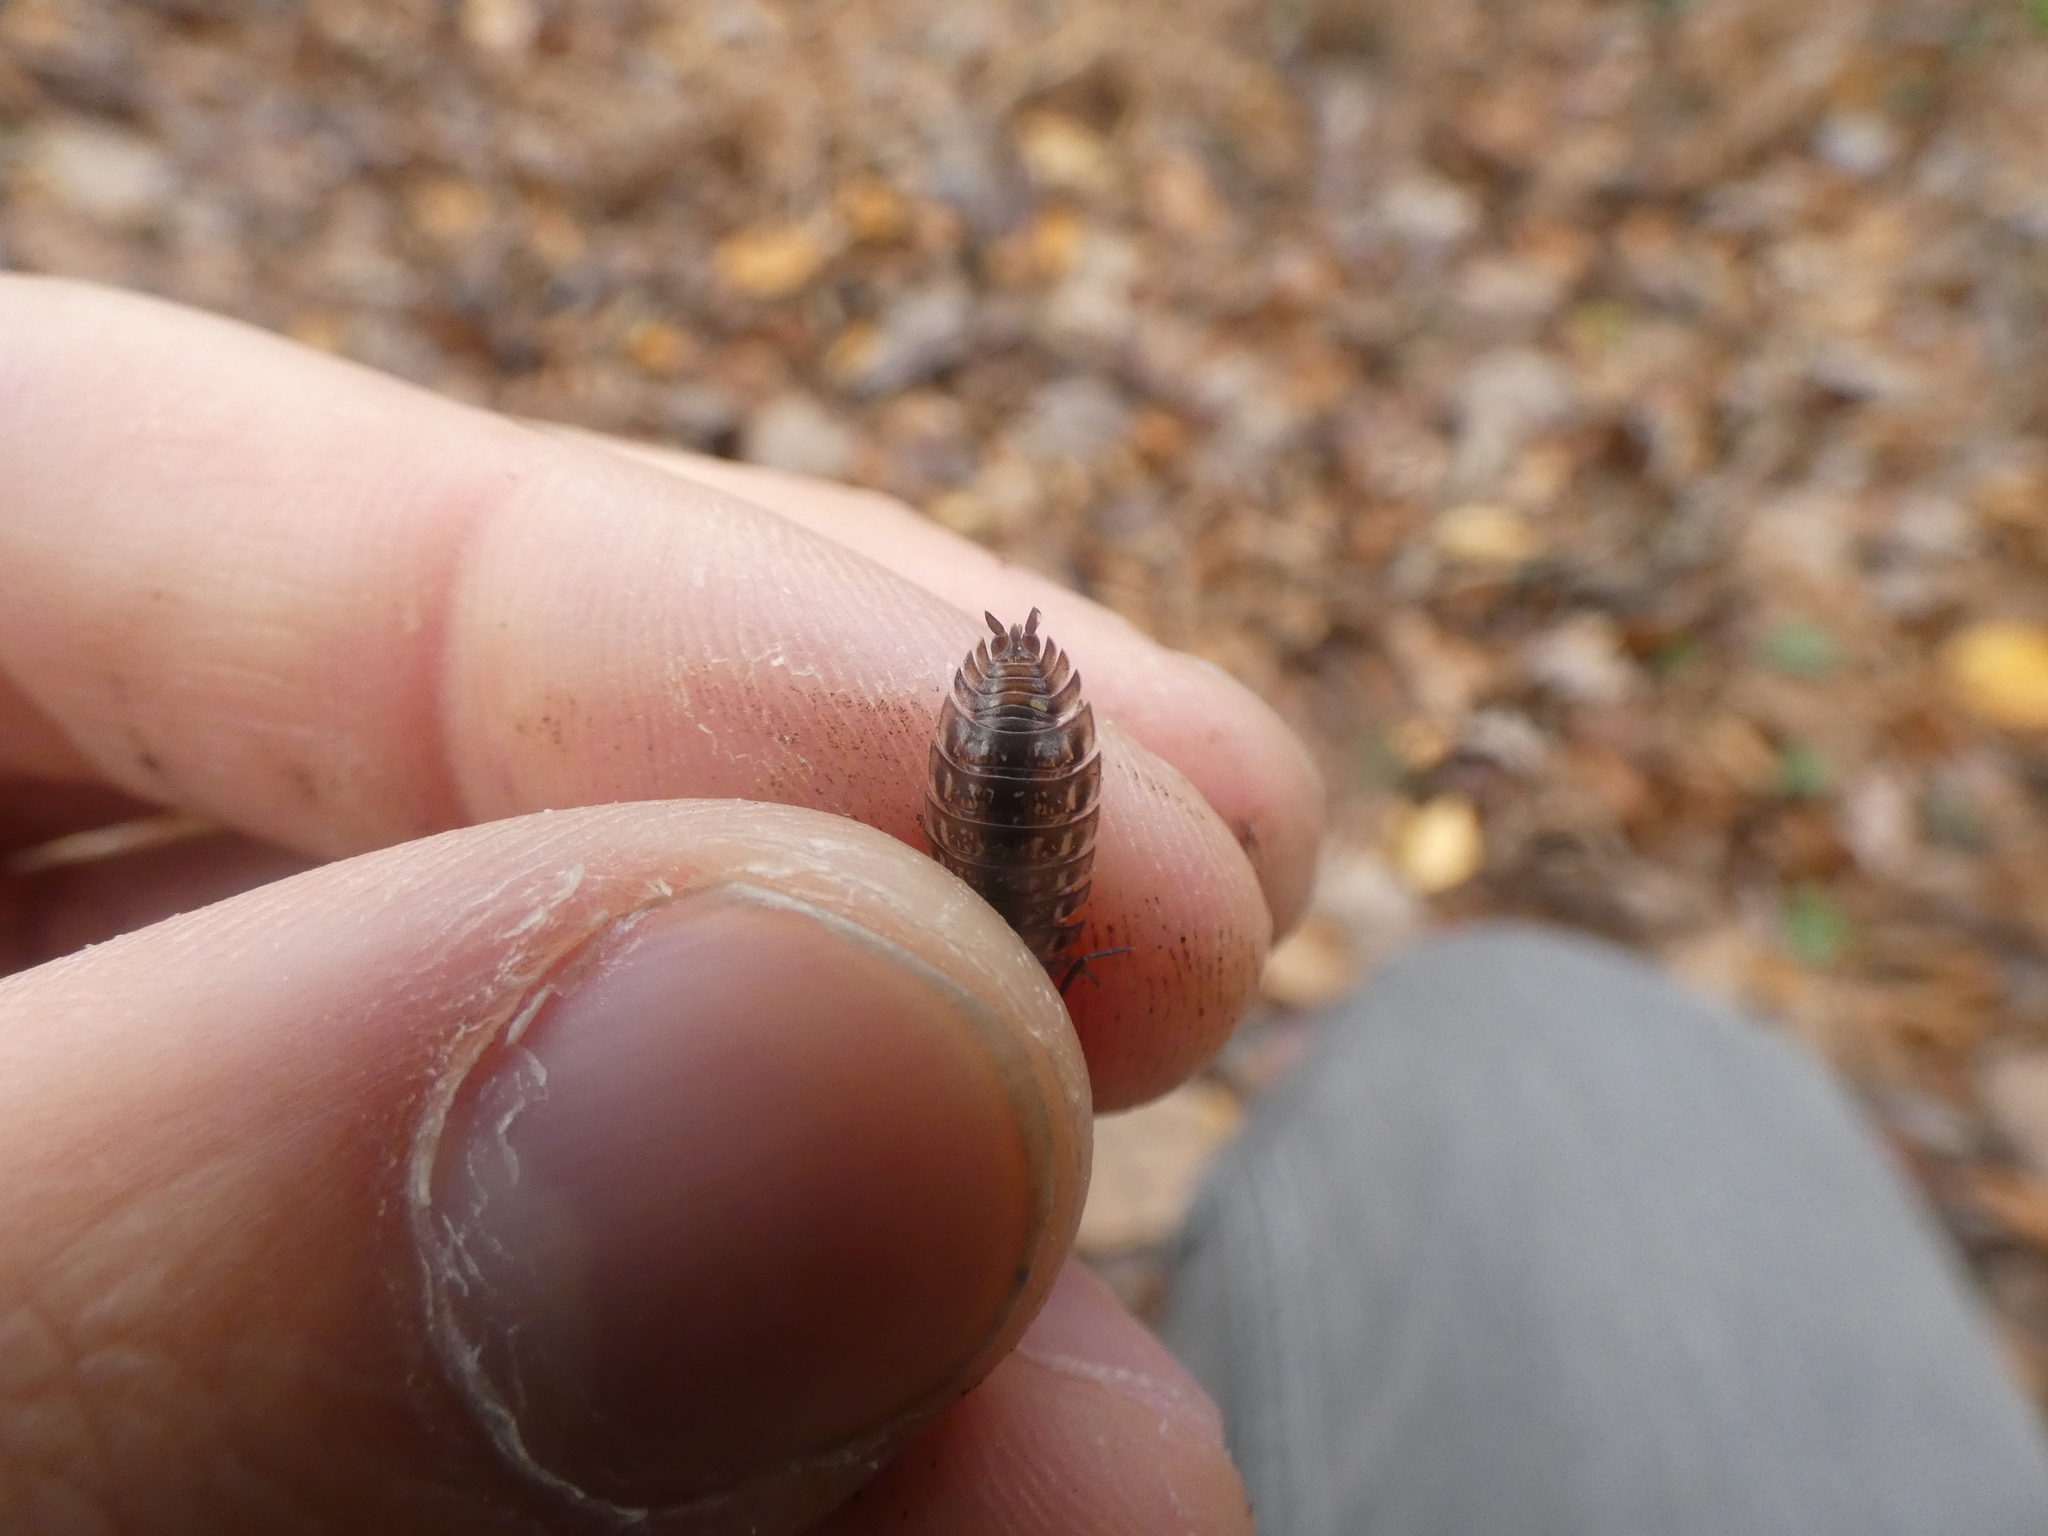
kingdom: Animalia
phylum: Arthropoda
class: Malacostraca
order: Isopoda
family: Oniscidae
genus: Oniscus
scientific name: Oniscus asellus
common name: Common shiny woodlouse
